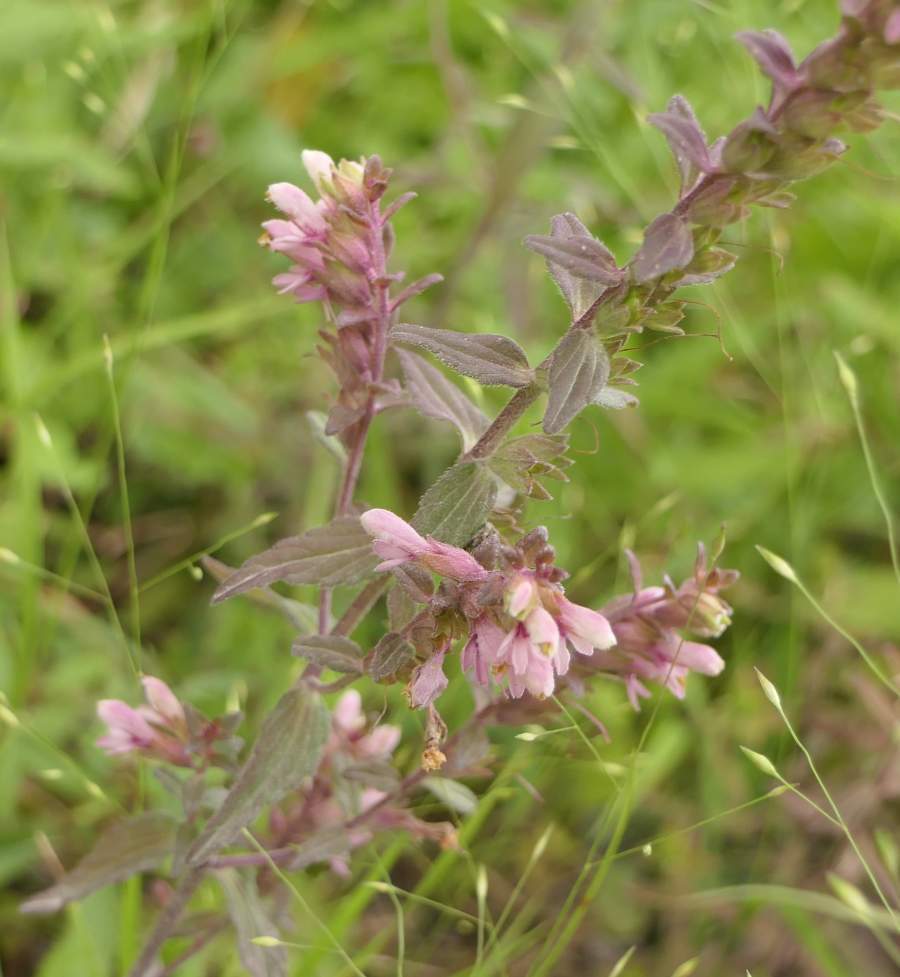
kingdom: Plantae
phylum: Tracheophyta
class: Magnoliopsida
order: Lamiales
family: Orobanchaceae
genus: Odontites
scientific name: Odontites vulgaris
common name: Broomrape
